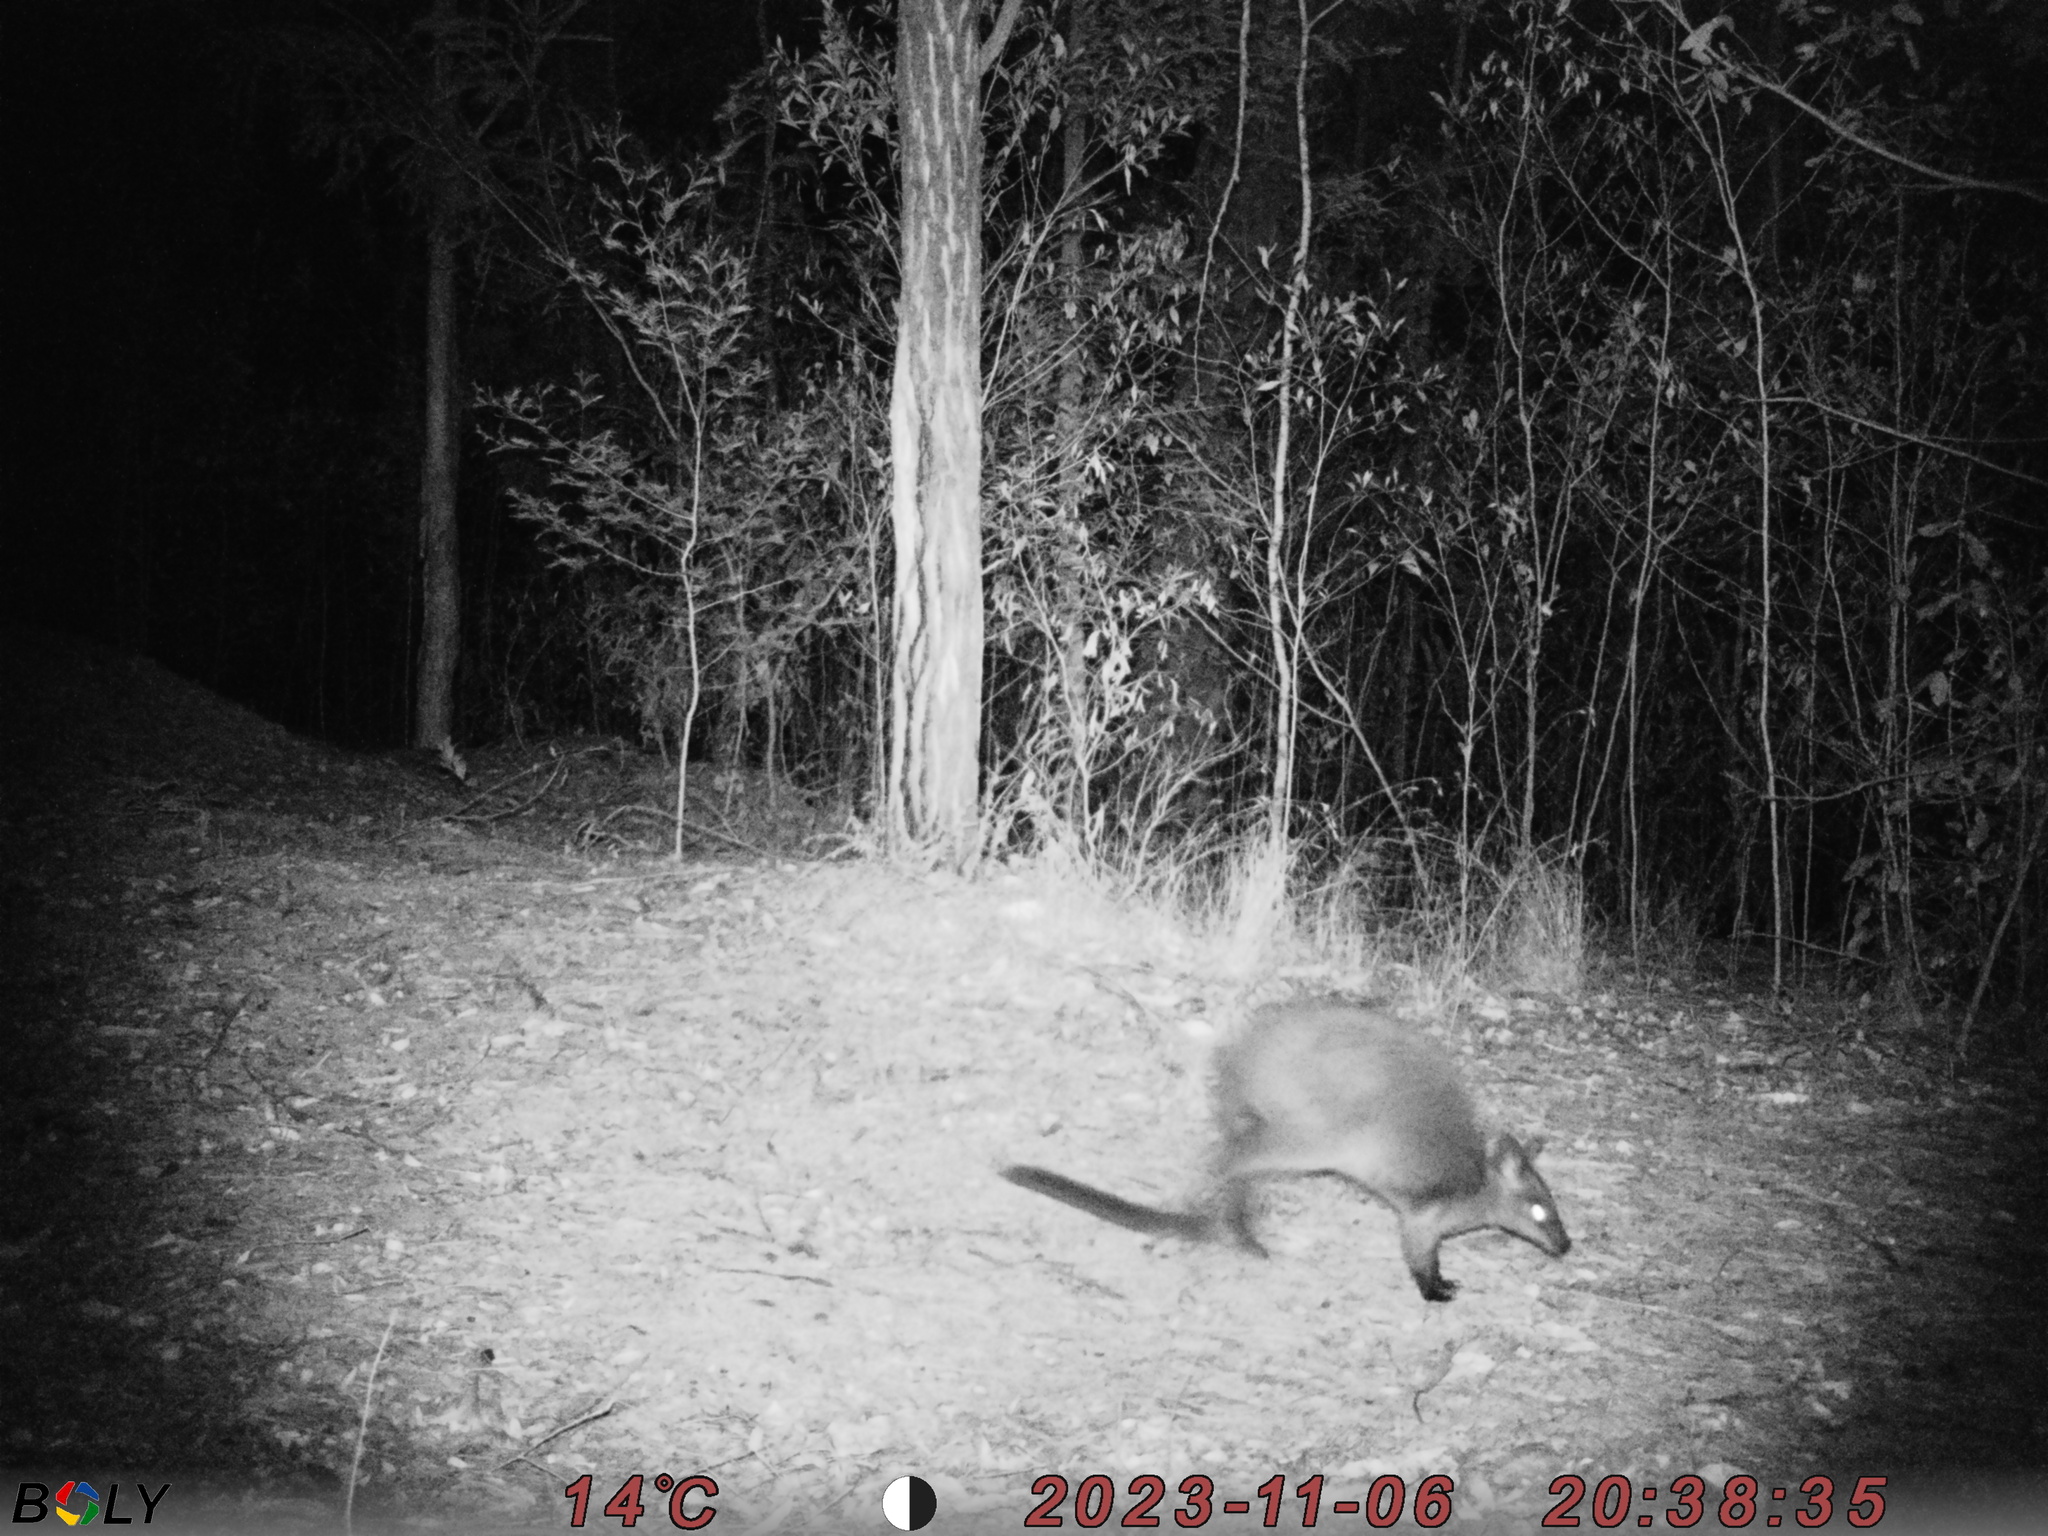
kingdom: Animalia
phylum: Chordata
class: Mammalia
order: Diprotodontia
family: Macropodidae
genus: Wallabia
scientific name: Wallabia bicolor
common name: Swamp wallaby
